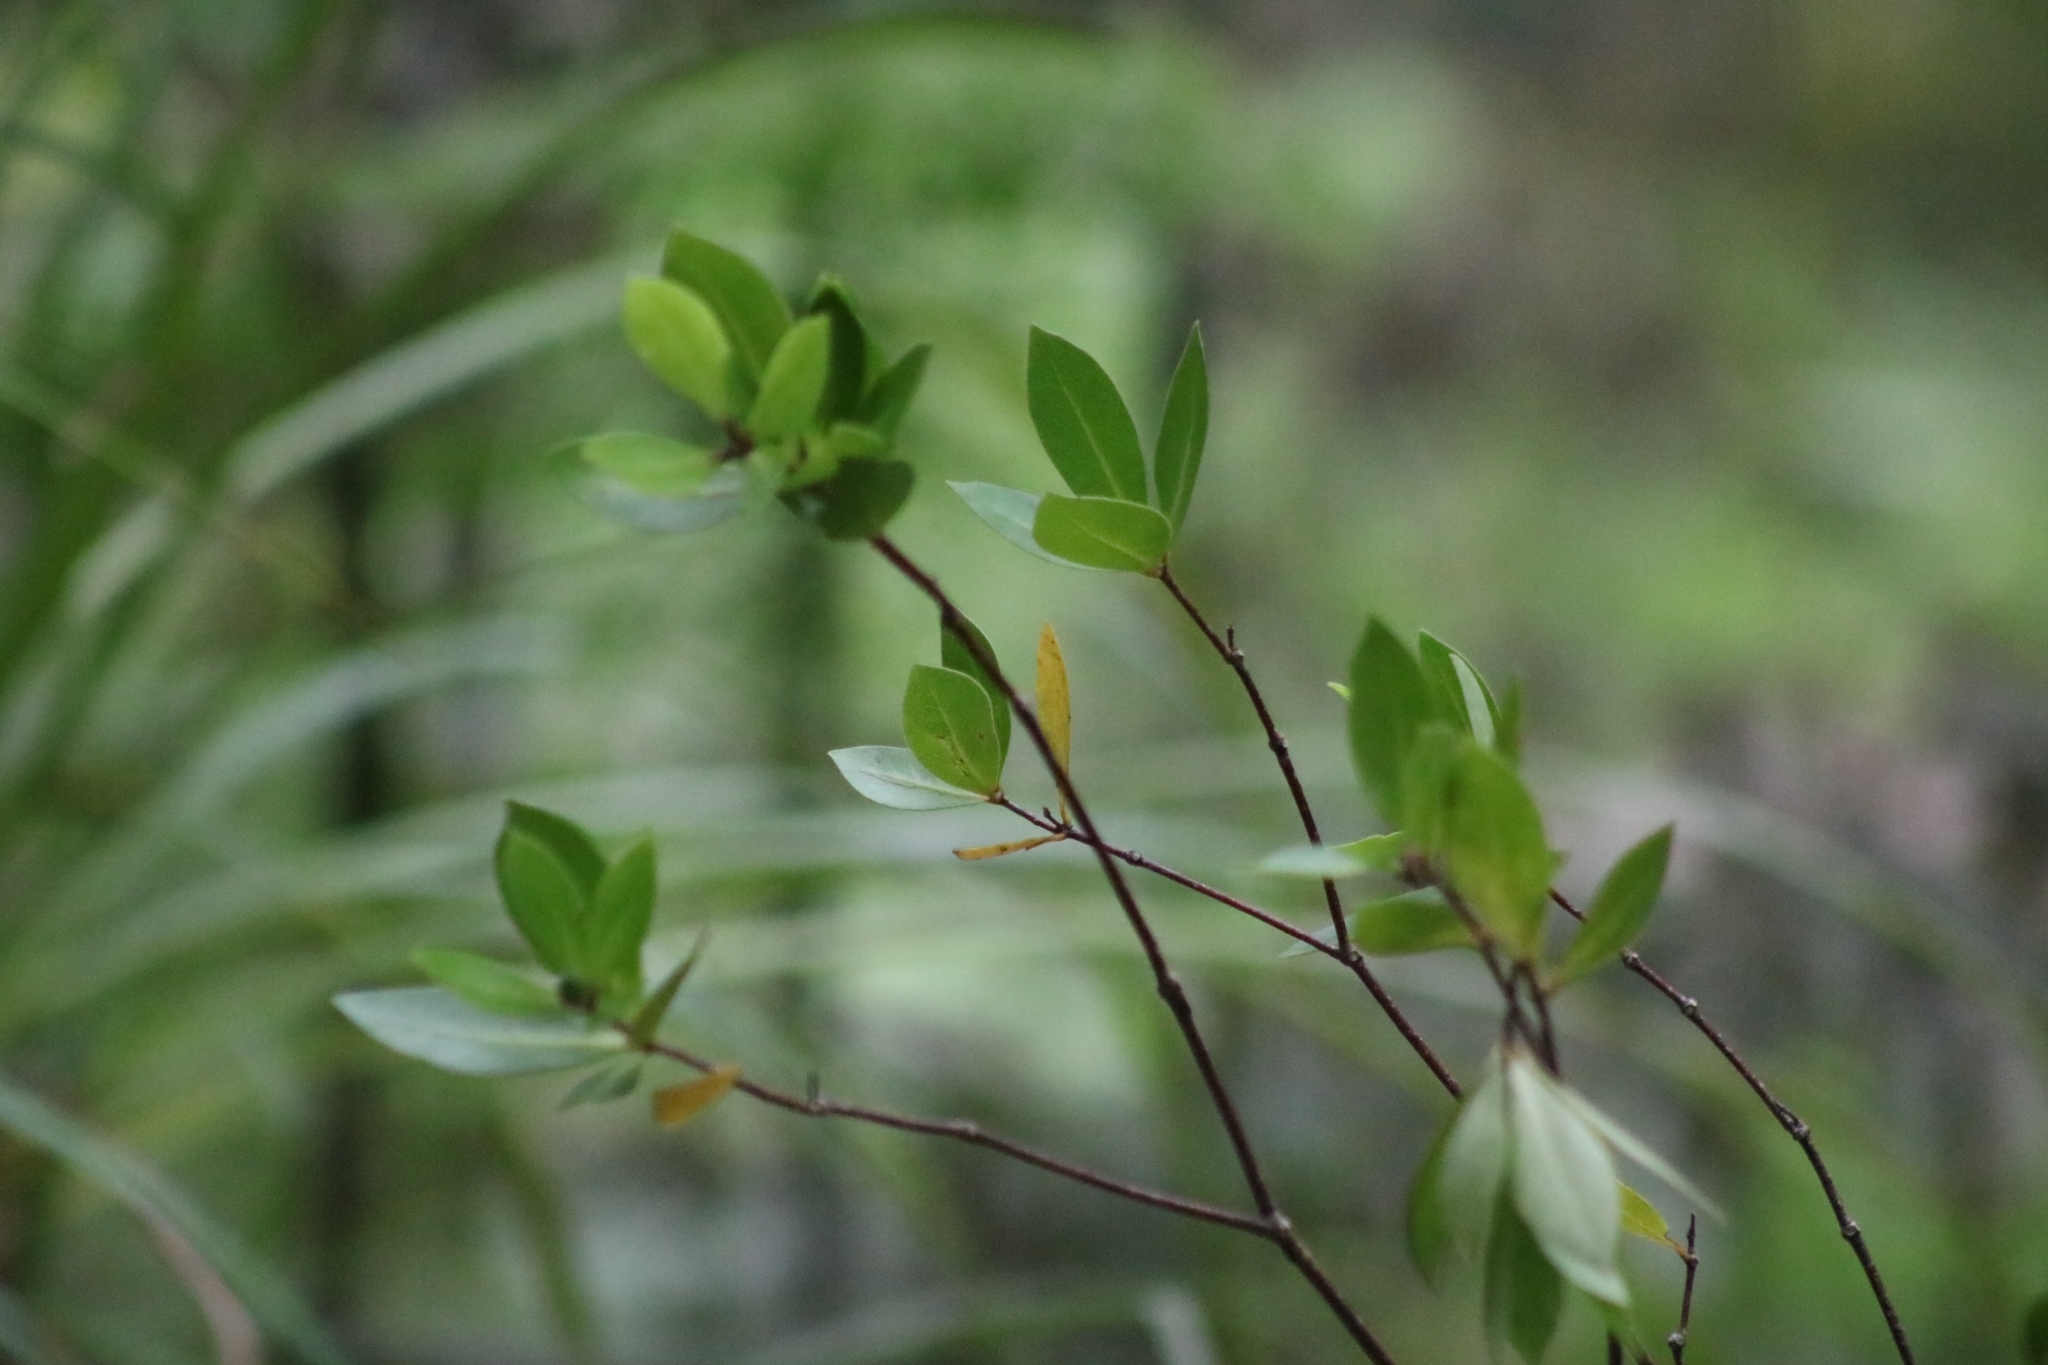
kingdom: Plantae
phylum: Tracheophyta
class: Magnoliopsida
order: Apiales
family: Pittosporaceae
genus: Pittosporum
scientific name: Pittosporum cornifolium
